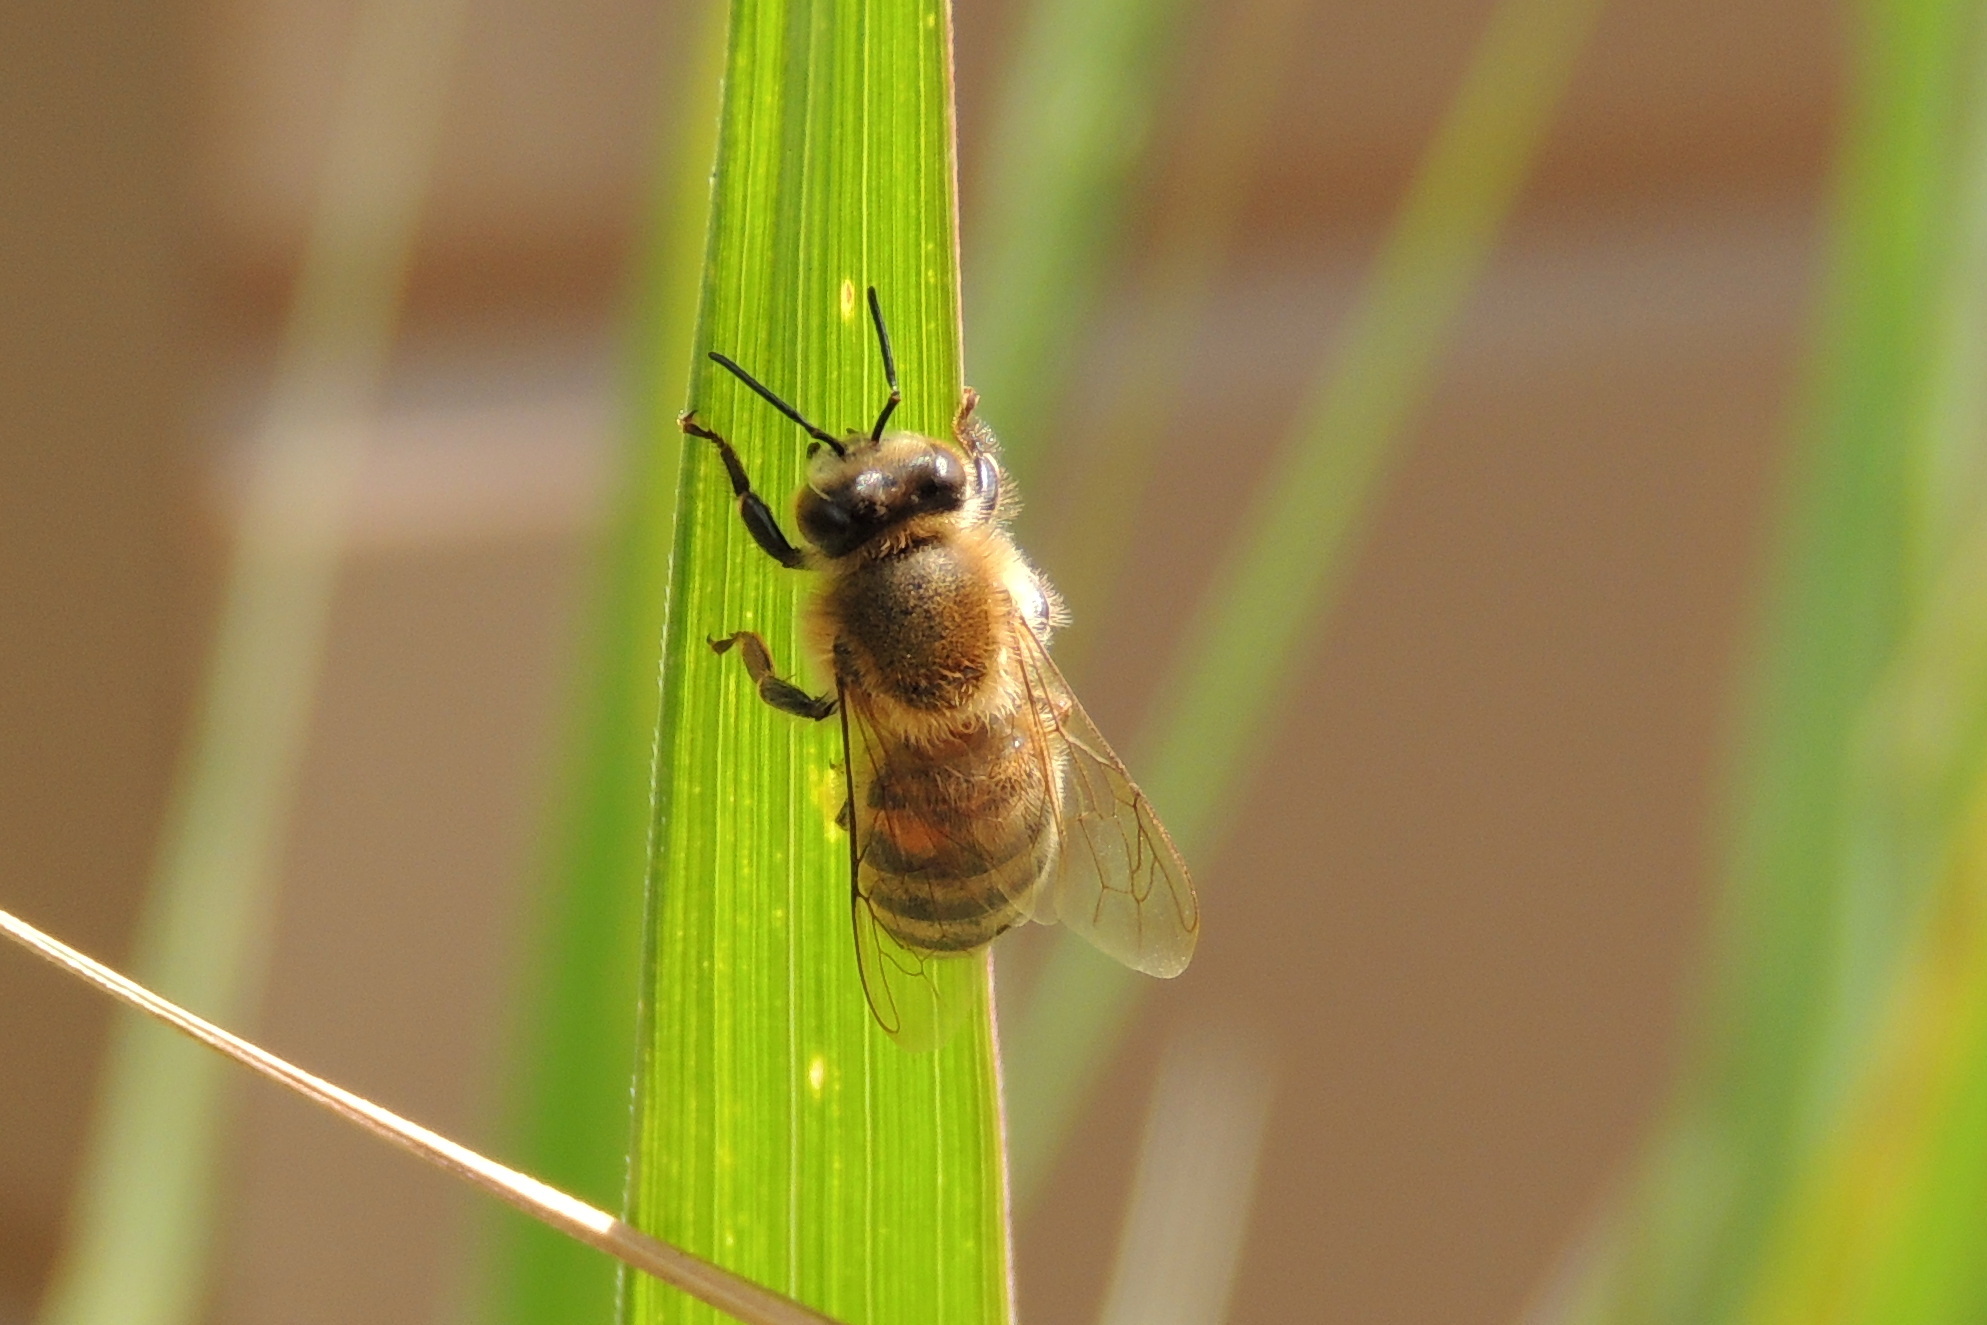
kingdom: Animalia
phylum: Arthropoda
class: Insecta
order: Hymenoptera
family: Apidae
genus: Apis
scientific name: Apis mellifera
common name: Honey bee
